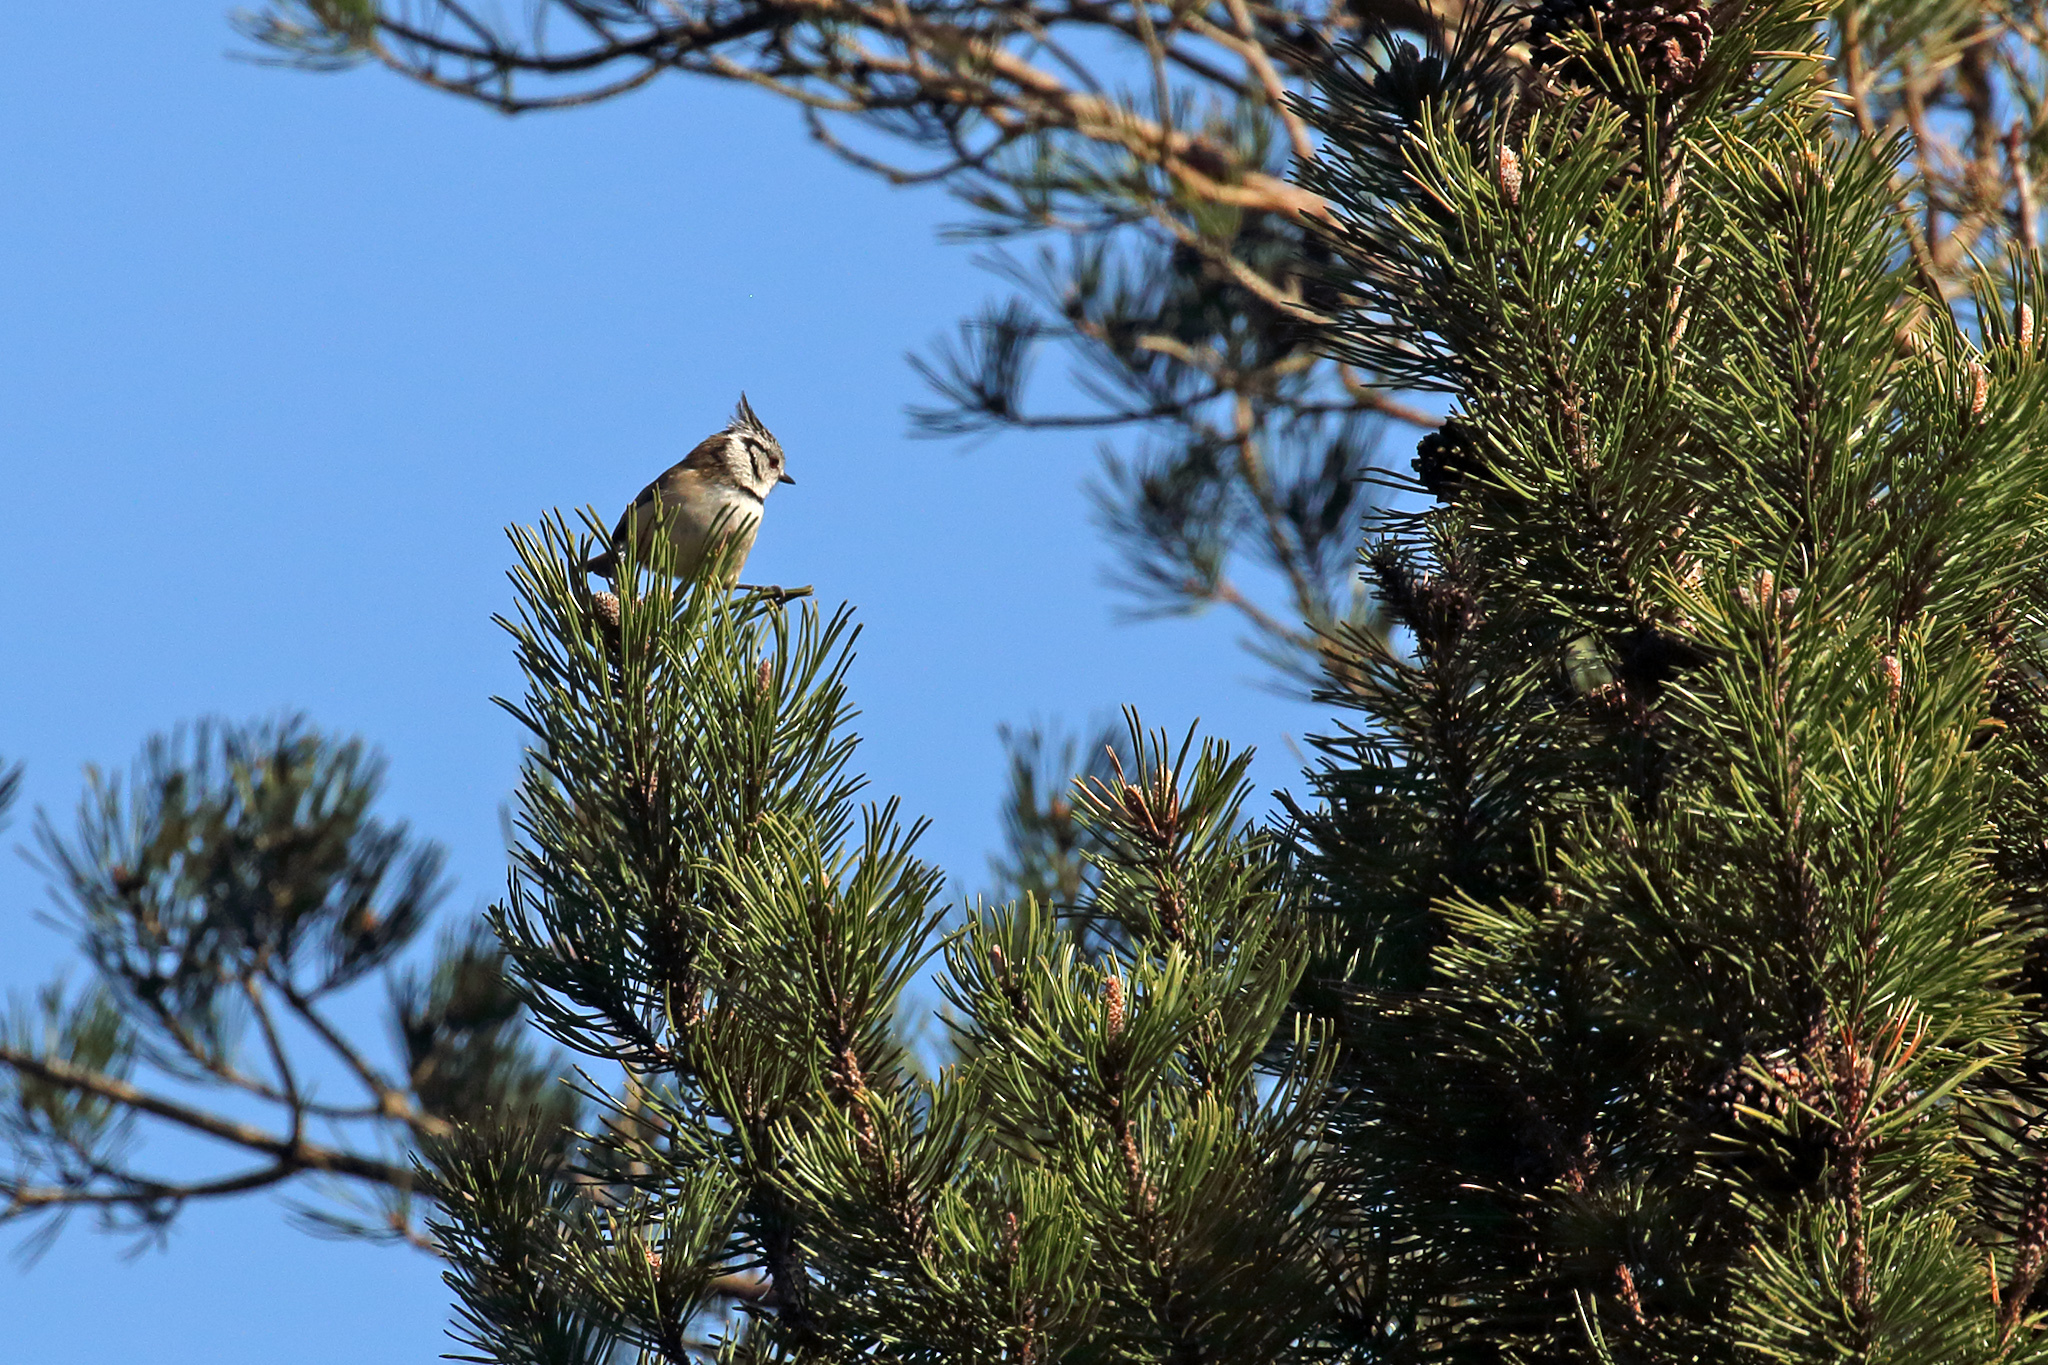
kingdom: Animalia
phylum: Chordata
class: Aves
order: Passeriformes
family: Paridae
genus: Lophophanes
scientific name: Lophophanes cristatus
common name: European crested tit
